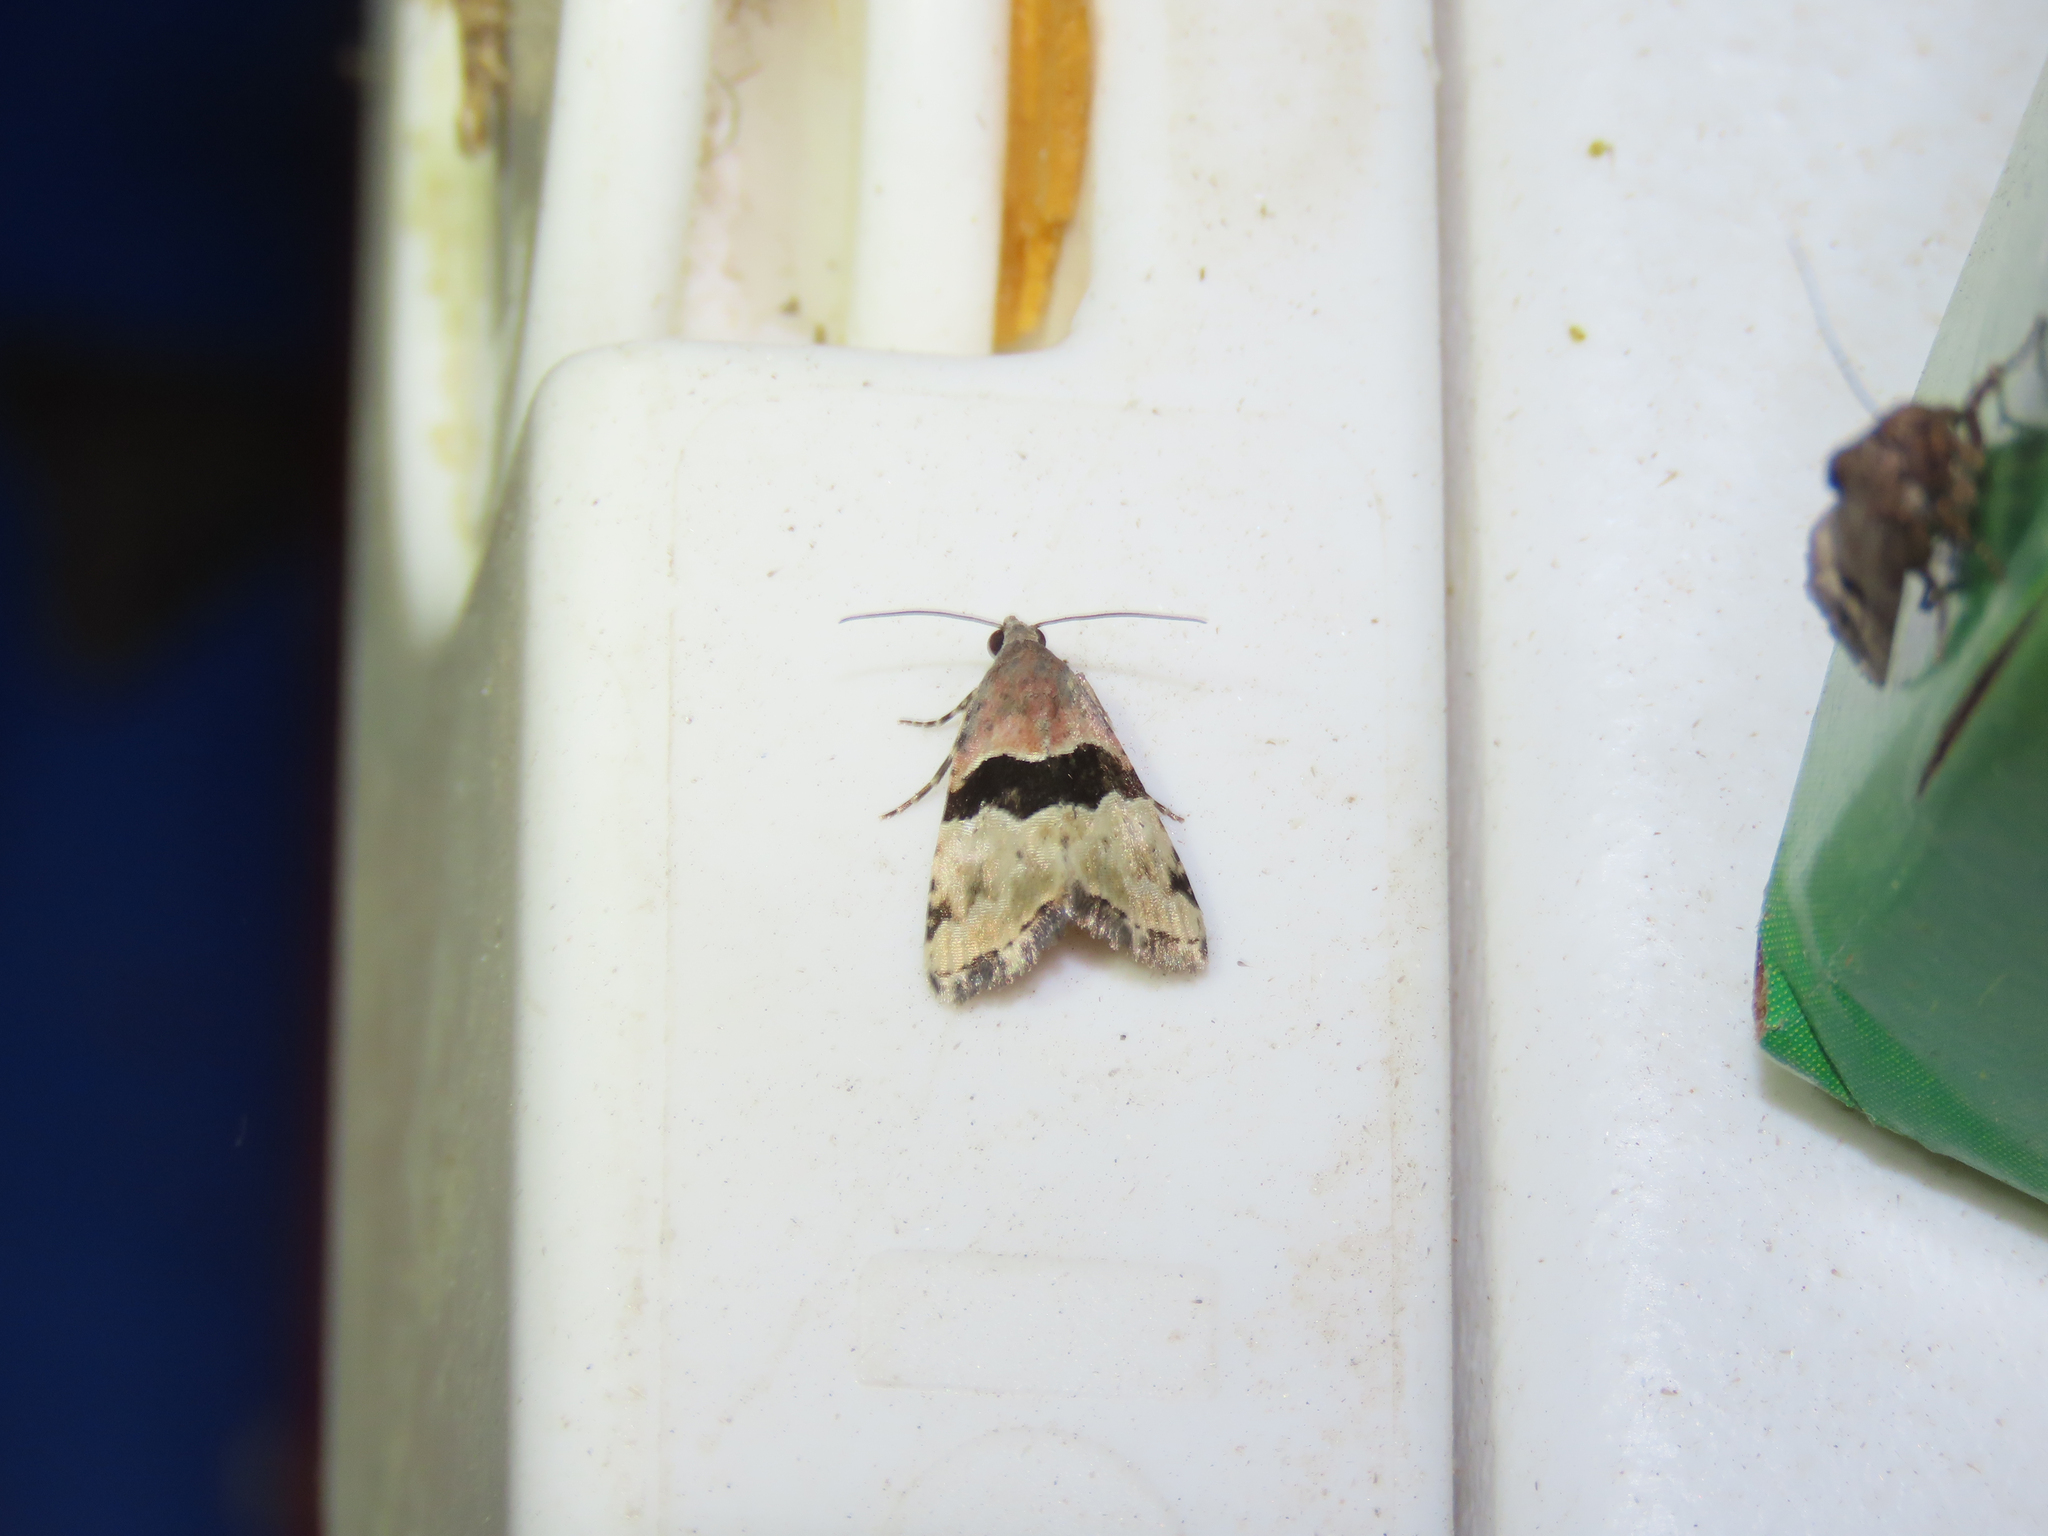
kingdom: Animalia
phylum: Arthropoda
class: Insecta
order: Lepidoptera
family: Noctuidae
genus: Cobubatha
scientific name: Cobubatha lixiva
